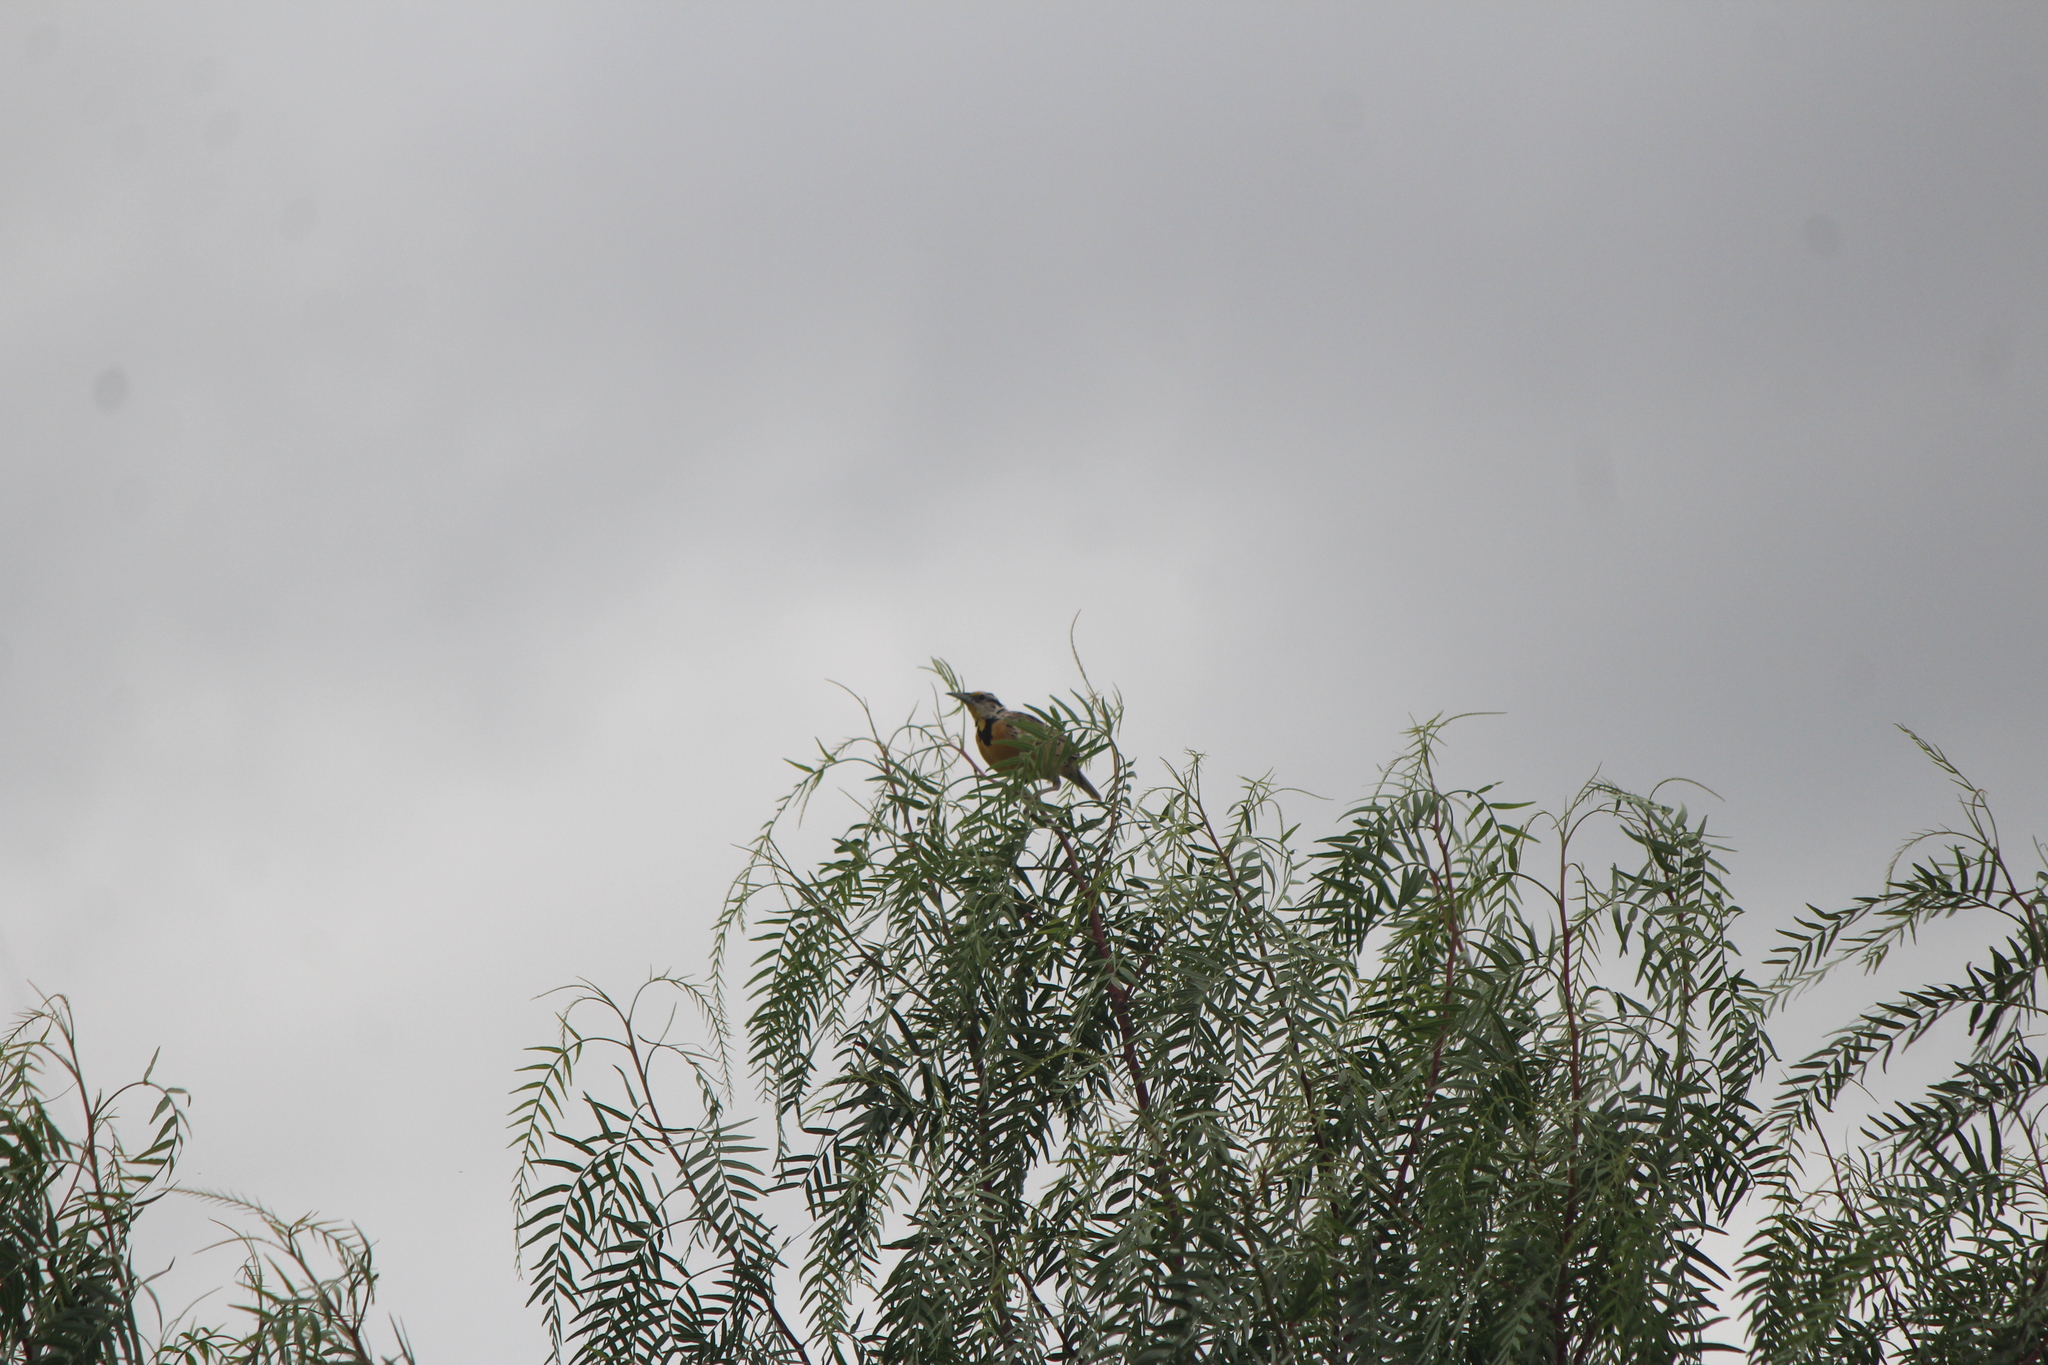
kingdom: Animalia
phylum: Chordata
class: Aves
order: Passeriformes
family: Icteridae
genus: Sturnella
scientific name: Sturnella lilianae
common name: Lilian's meadowlark
